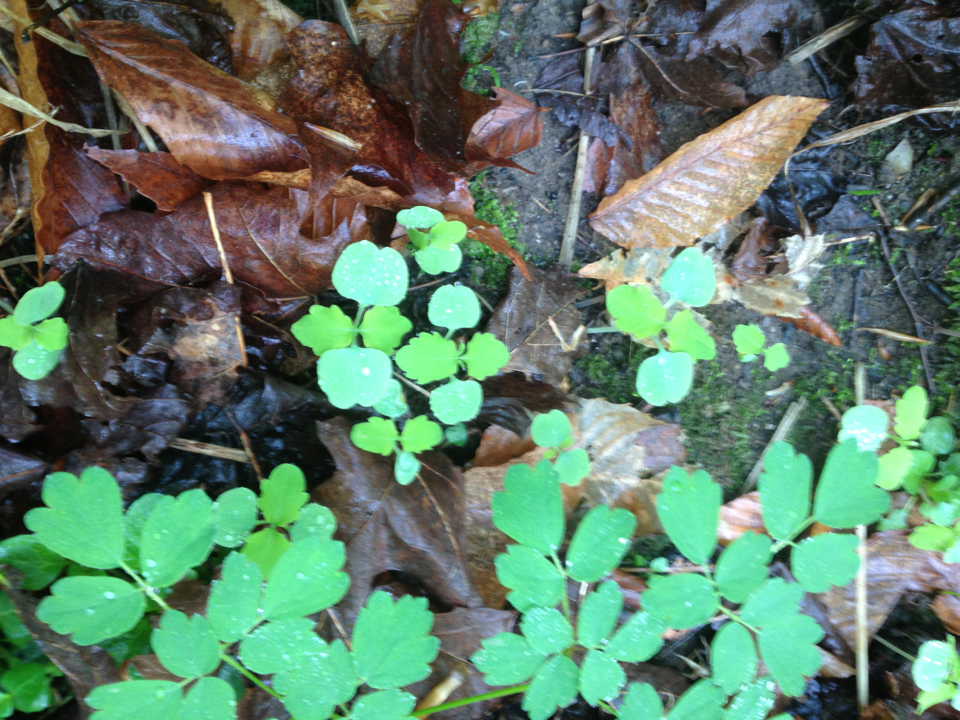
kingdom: Plantae
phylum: Tracheophyta
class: Magnoliopsida
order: Ericales
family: Balsaminaceae
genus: Impatiens
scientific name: Impatiens capensis
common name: Orange balsam
